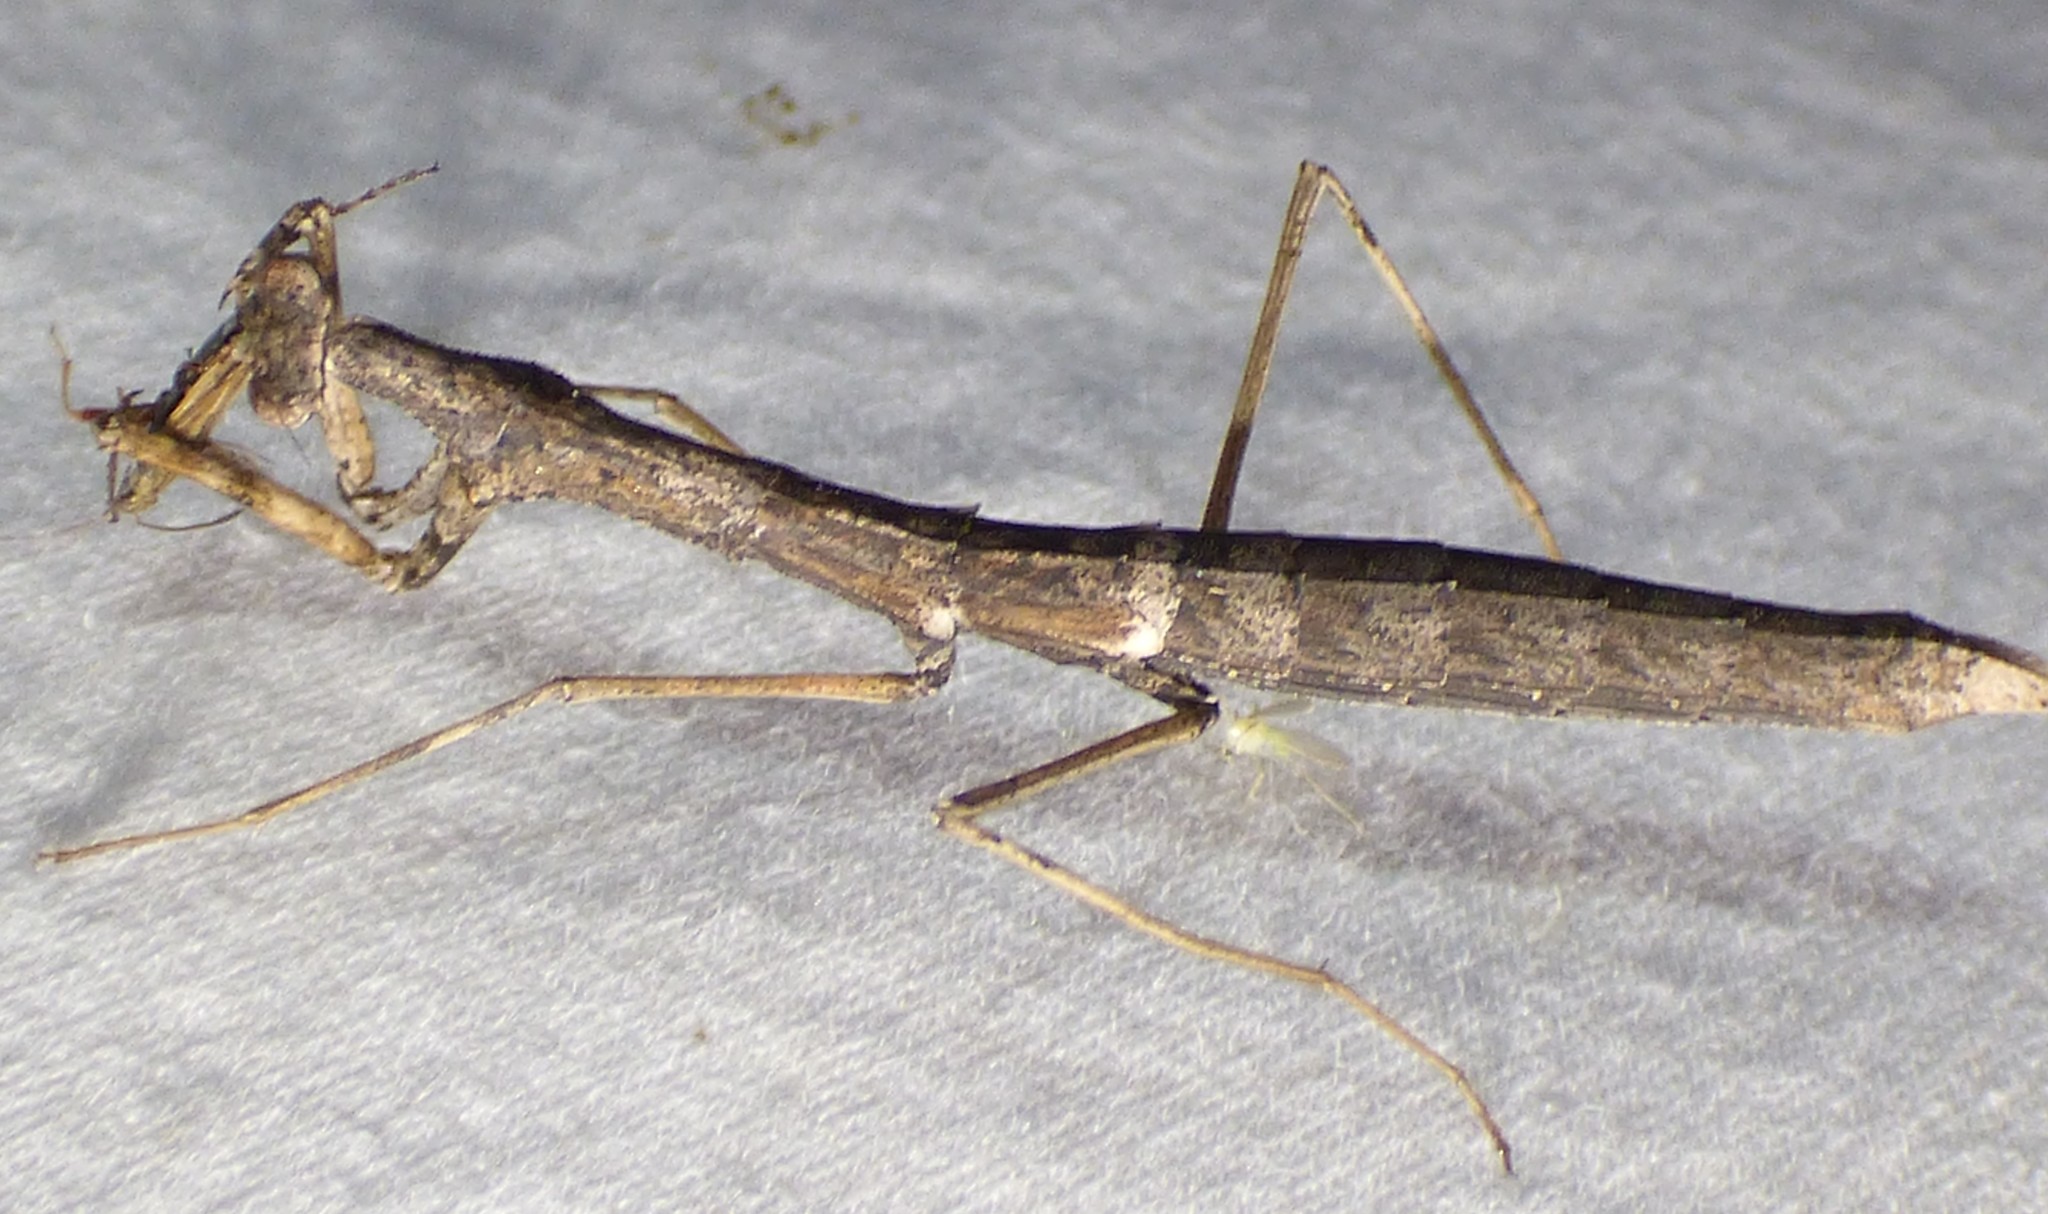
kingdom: Animalia
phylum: Arthropoda
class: Insecta
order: Mantodea
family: Thespidae
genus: Oligonicella
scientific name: Oligonicella scudderi
